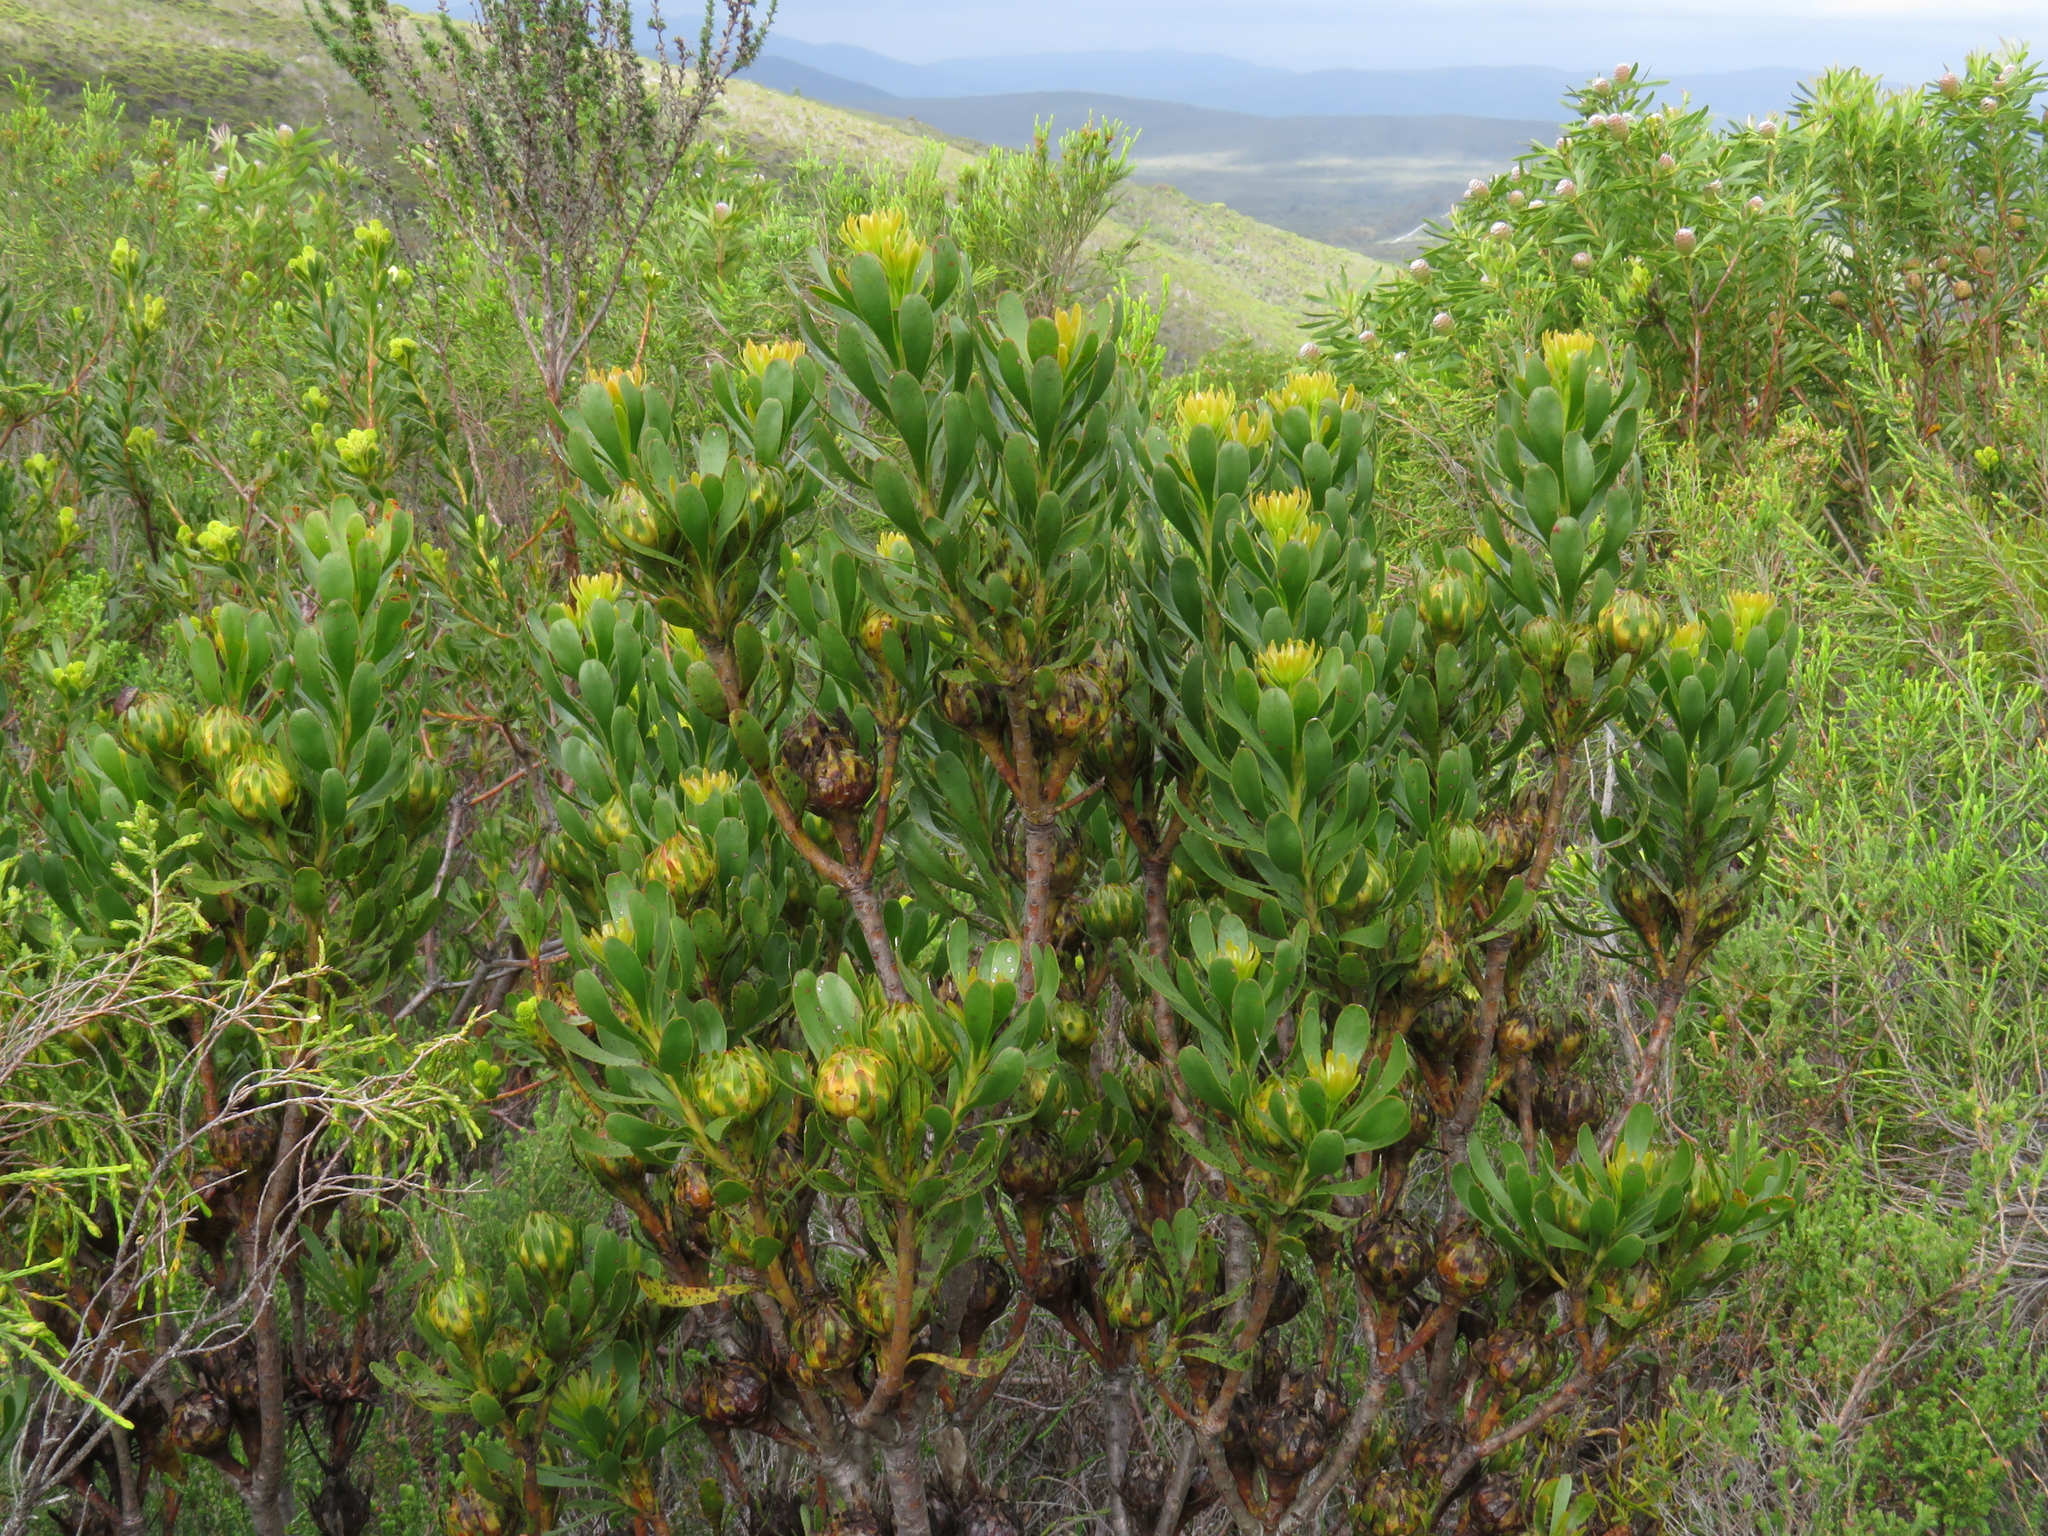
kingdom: Plantae
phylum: Tracheophyta
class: Magnoliopsida
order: Proteales
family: Proteaceae
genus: Aulax
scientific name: Aulax umbellata
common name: Broad-leaf featherbush
